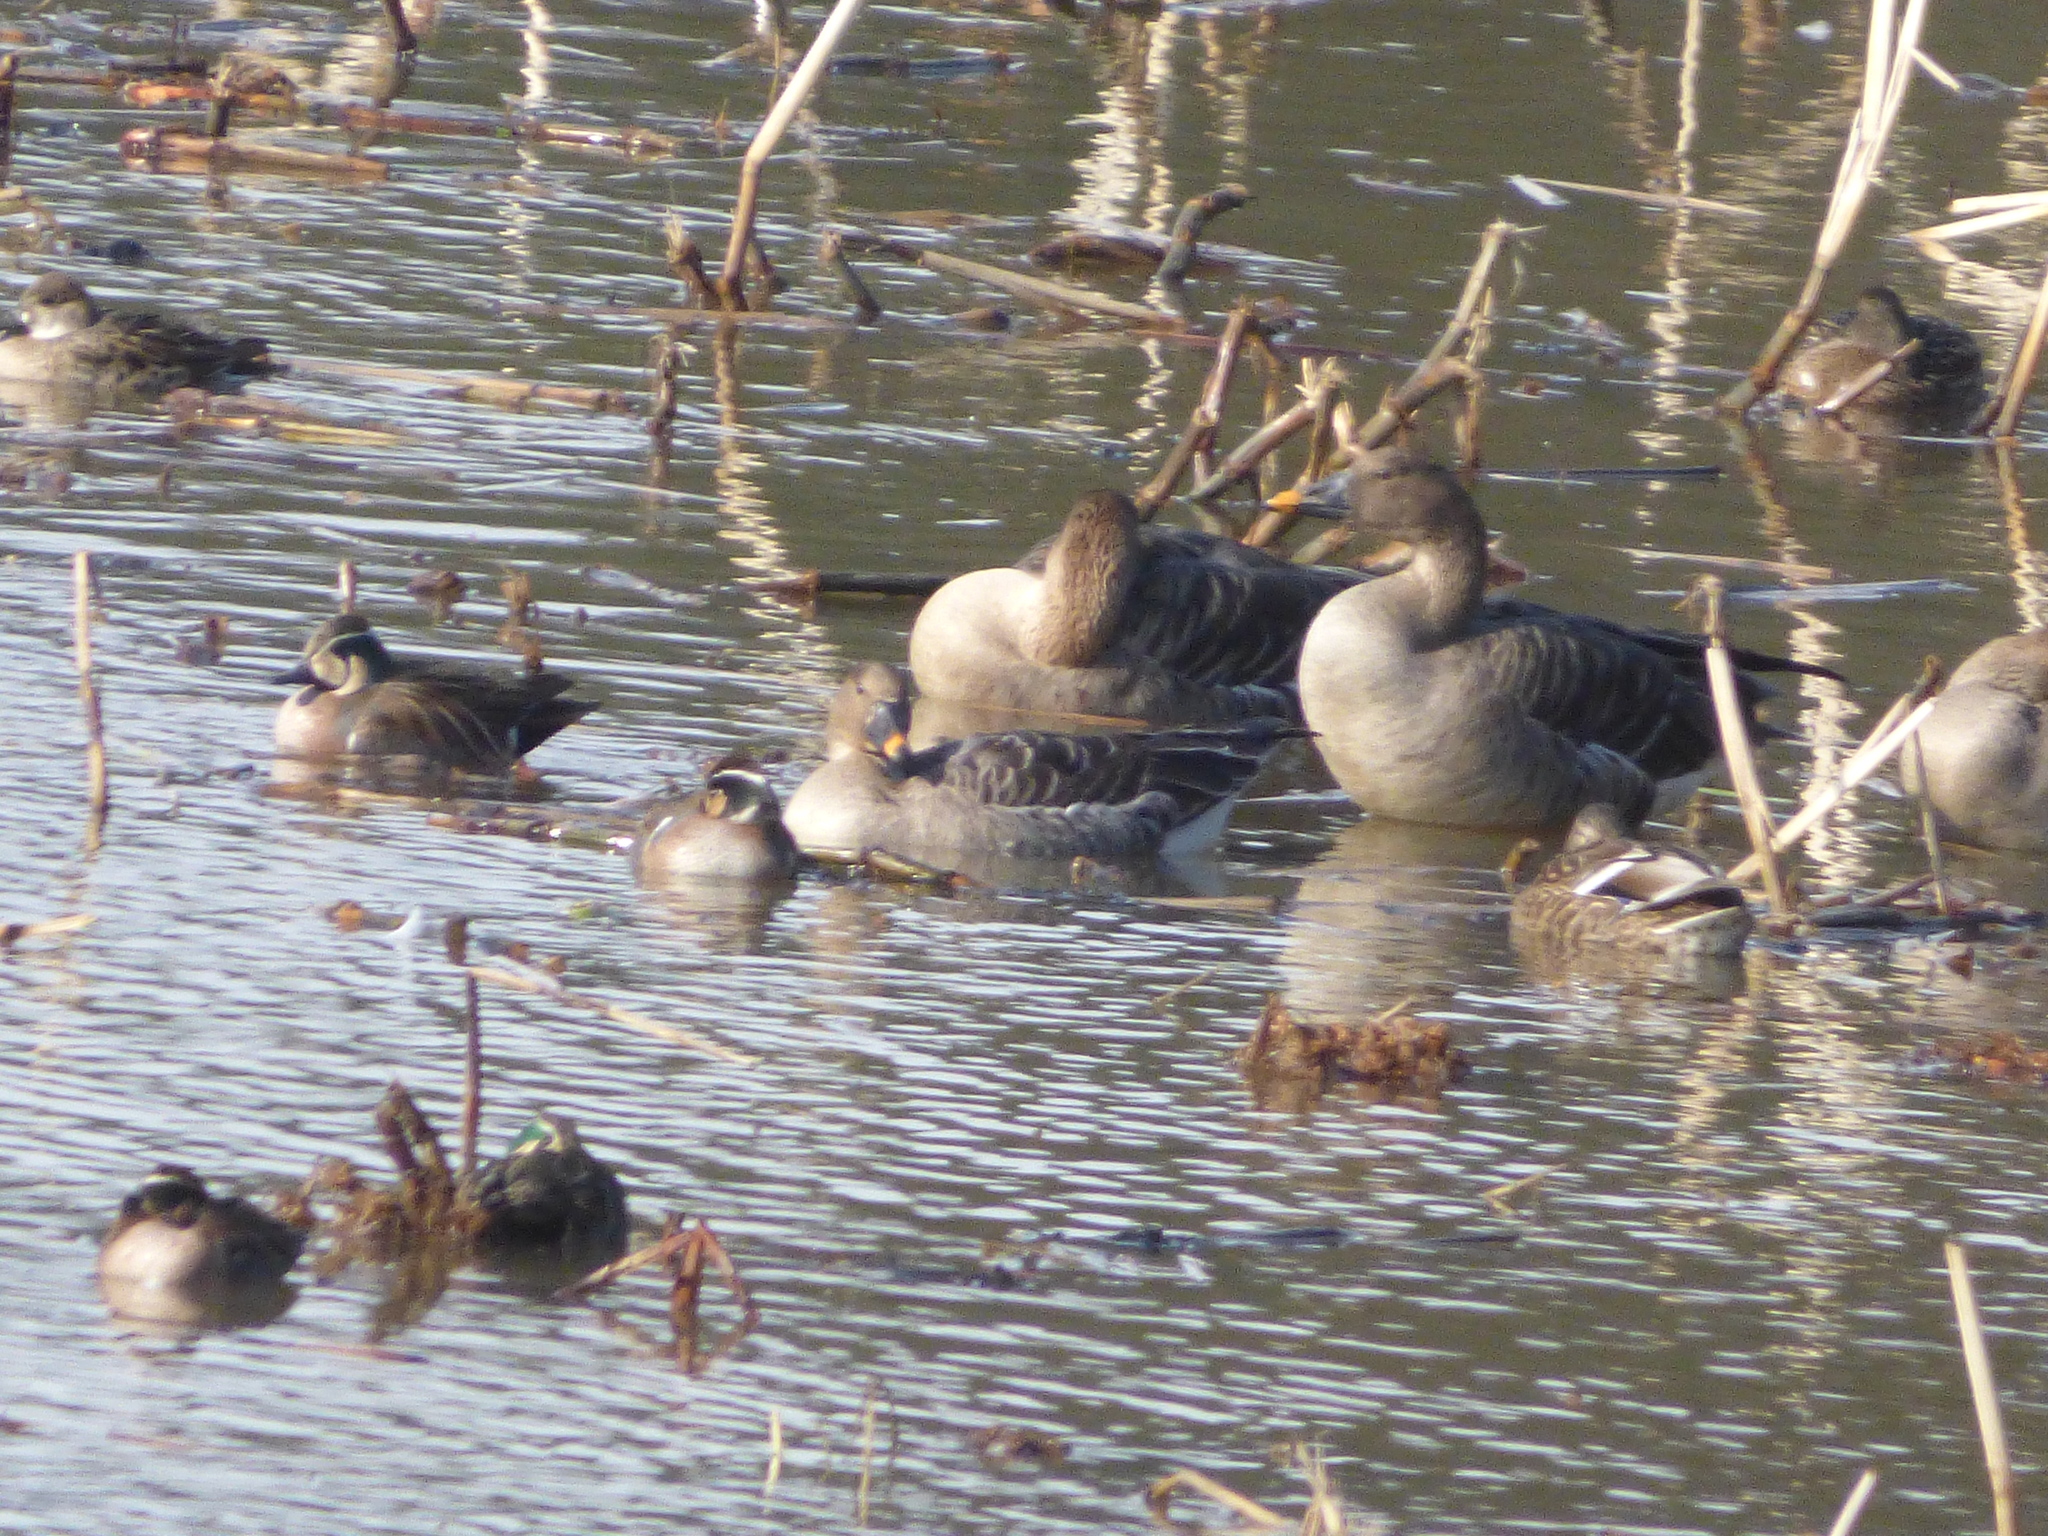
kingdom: Animalia
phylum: Chordata
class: Aves
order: Anseriformes
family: Anatidae
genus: Anser
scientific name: Anser fabalis
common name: Bean goose
